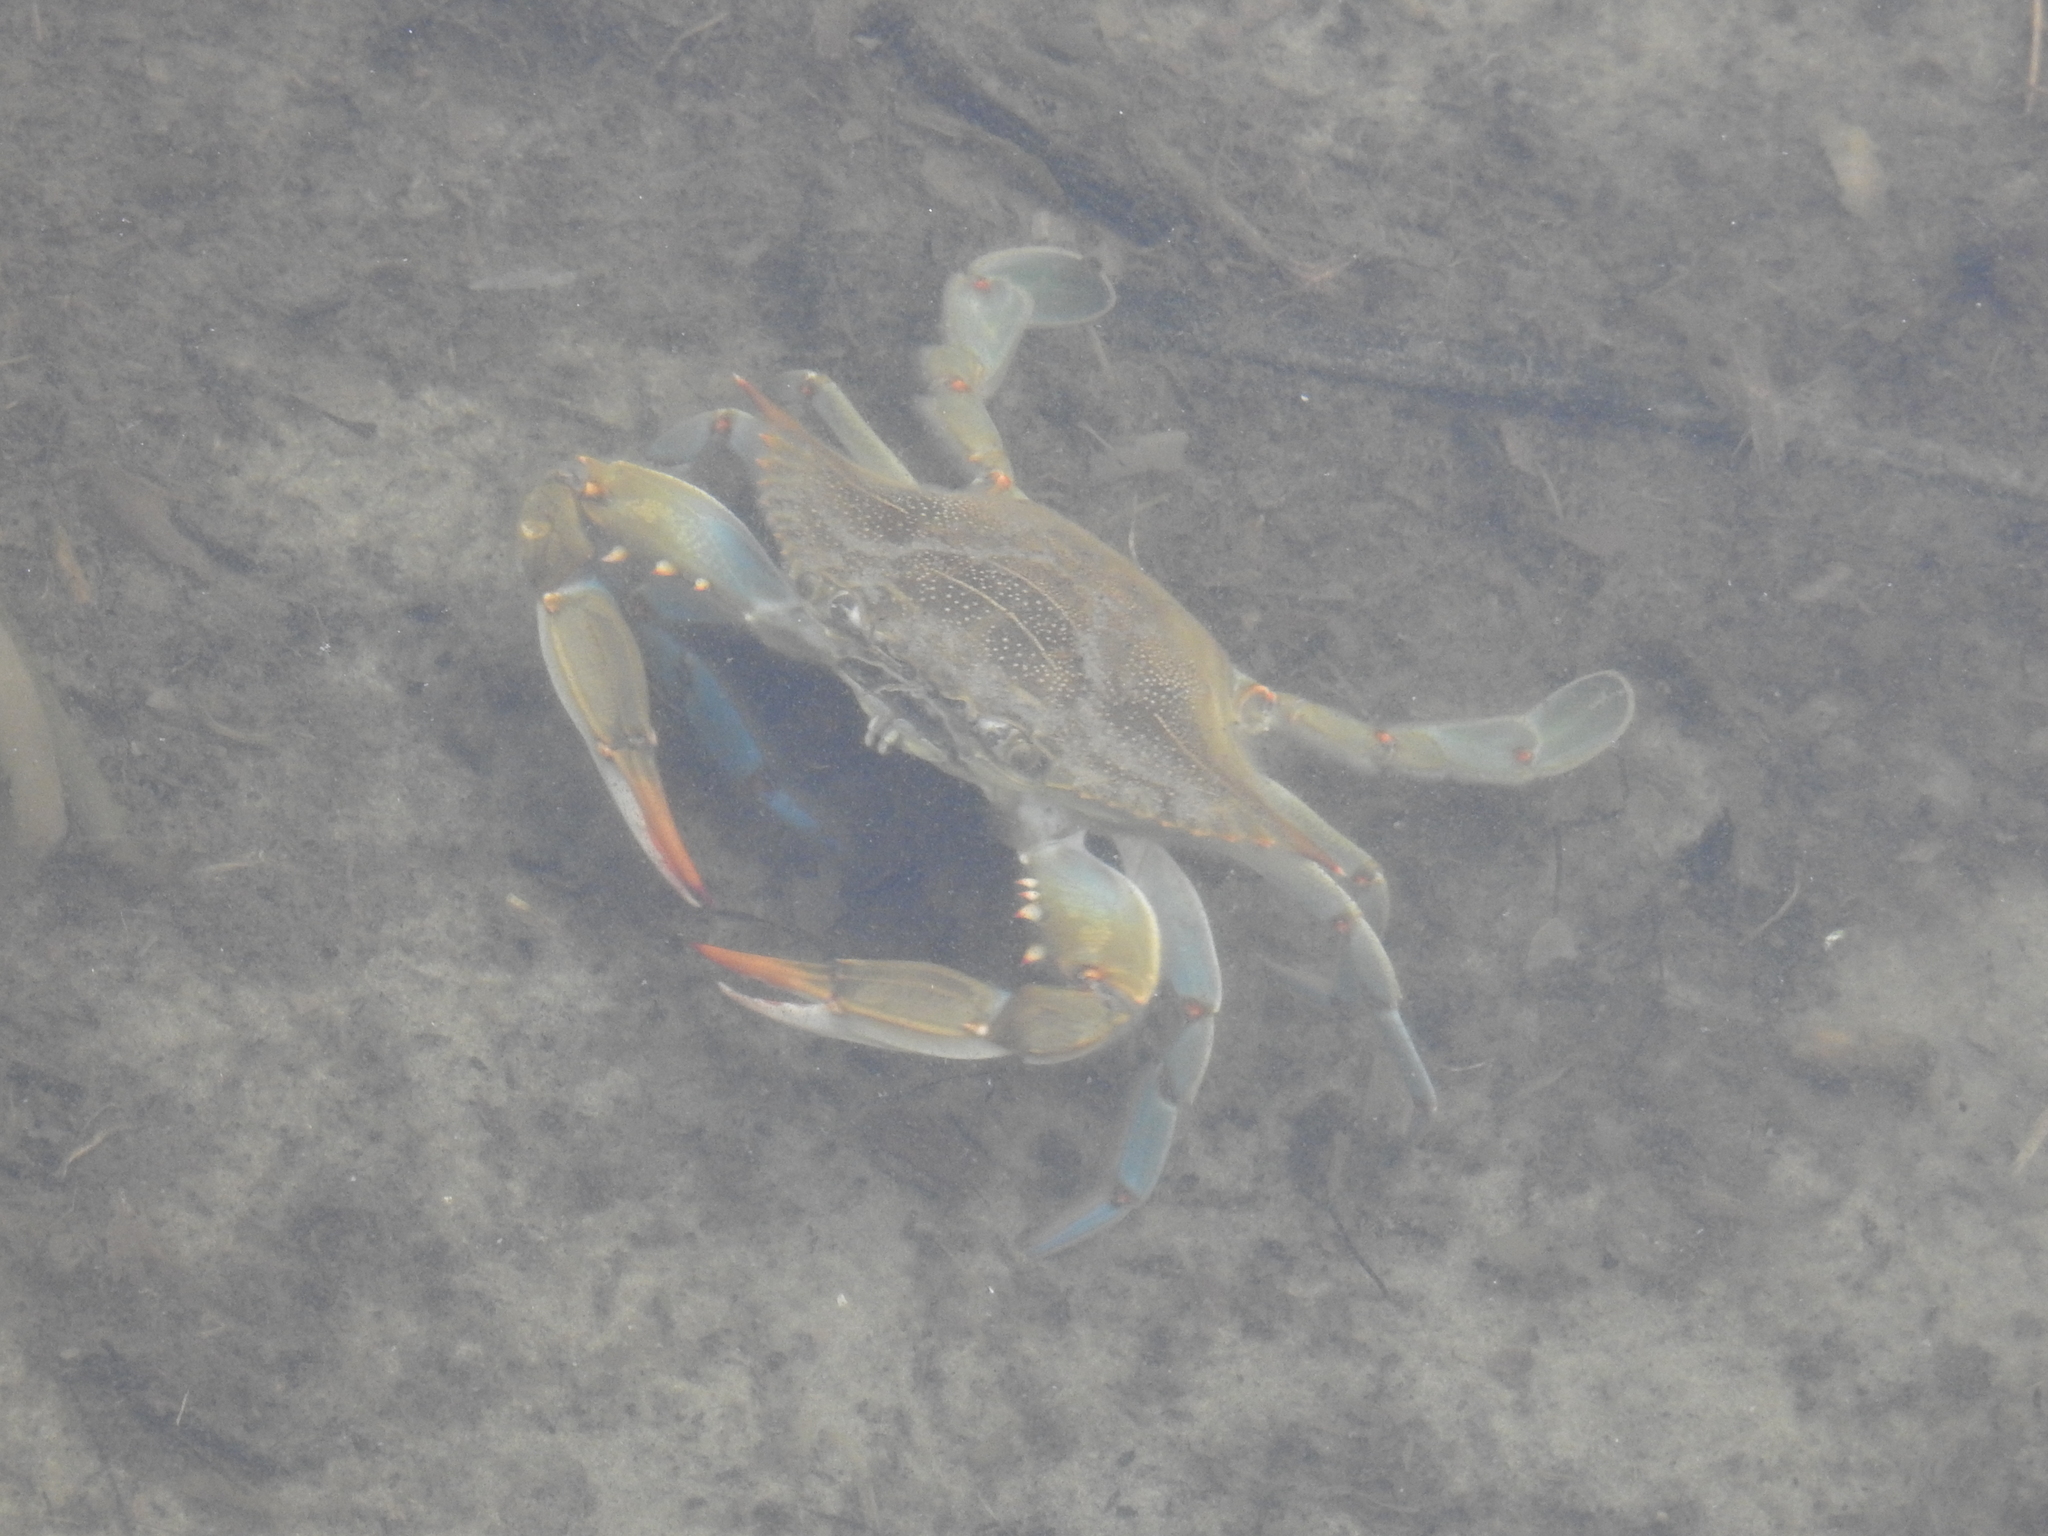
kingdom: Animalia
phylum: Arthropoda
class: Malacostraca
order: Decapoda
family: Portunidae
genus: Callinectes
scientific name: Callinectes sapidus
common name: Blue crab
